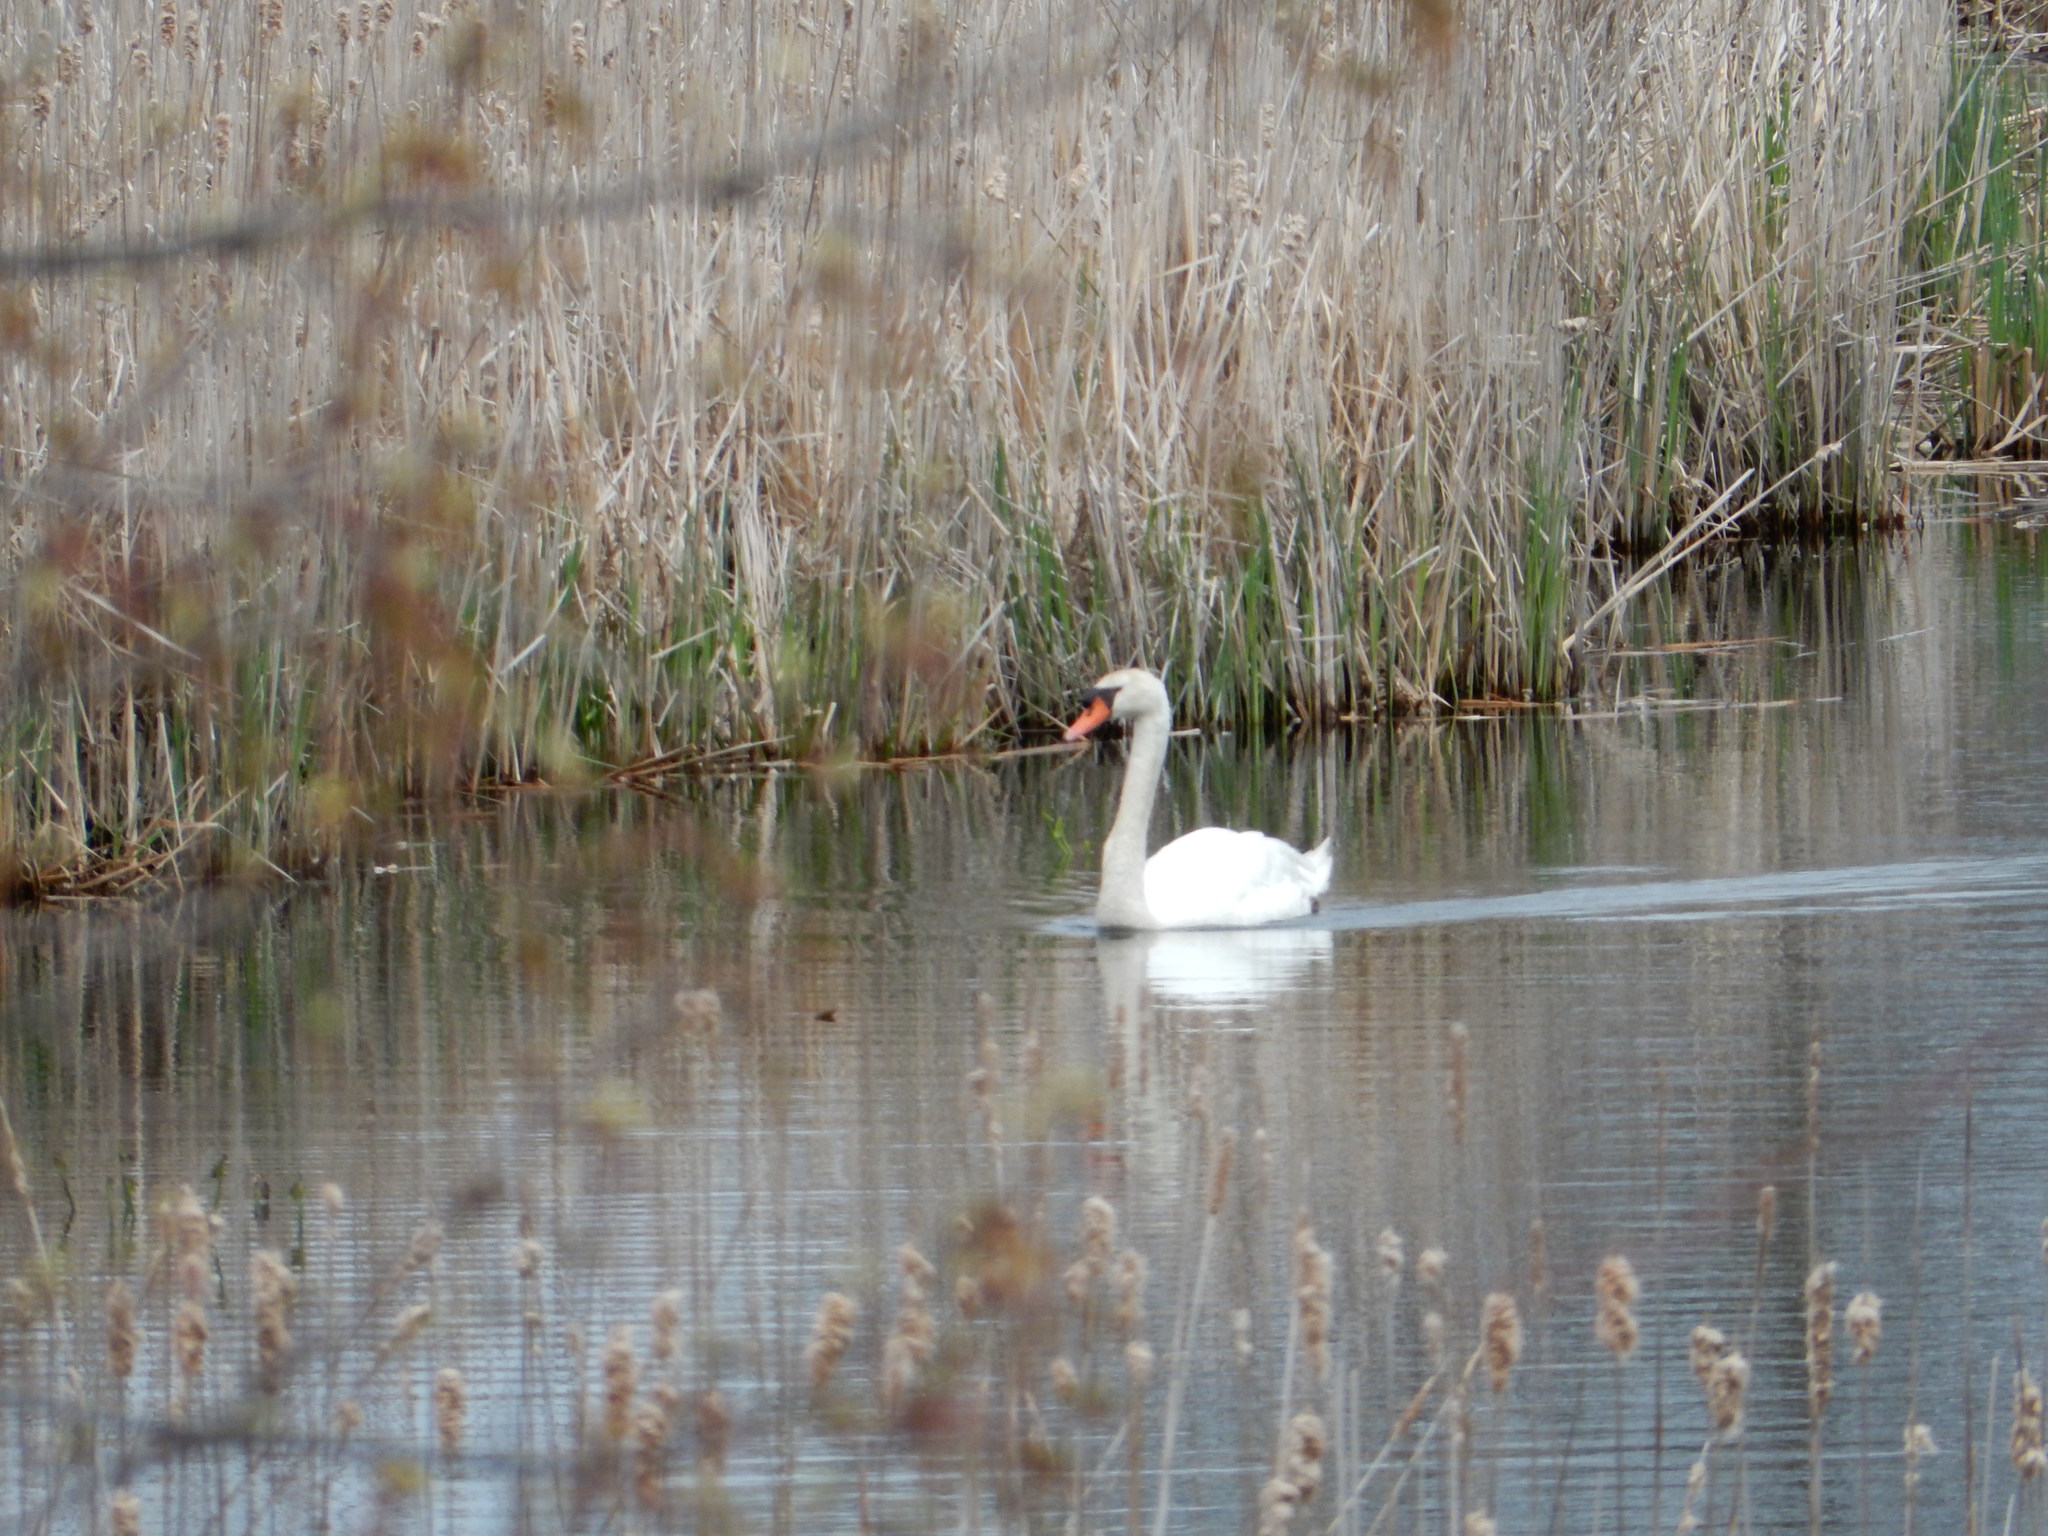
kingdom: Animalia
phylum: Chordata
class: Aves
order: Anseriformes
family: Anatidae
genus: Cygnus
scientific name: Cygnus olor
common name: Mute swan
